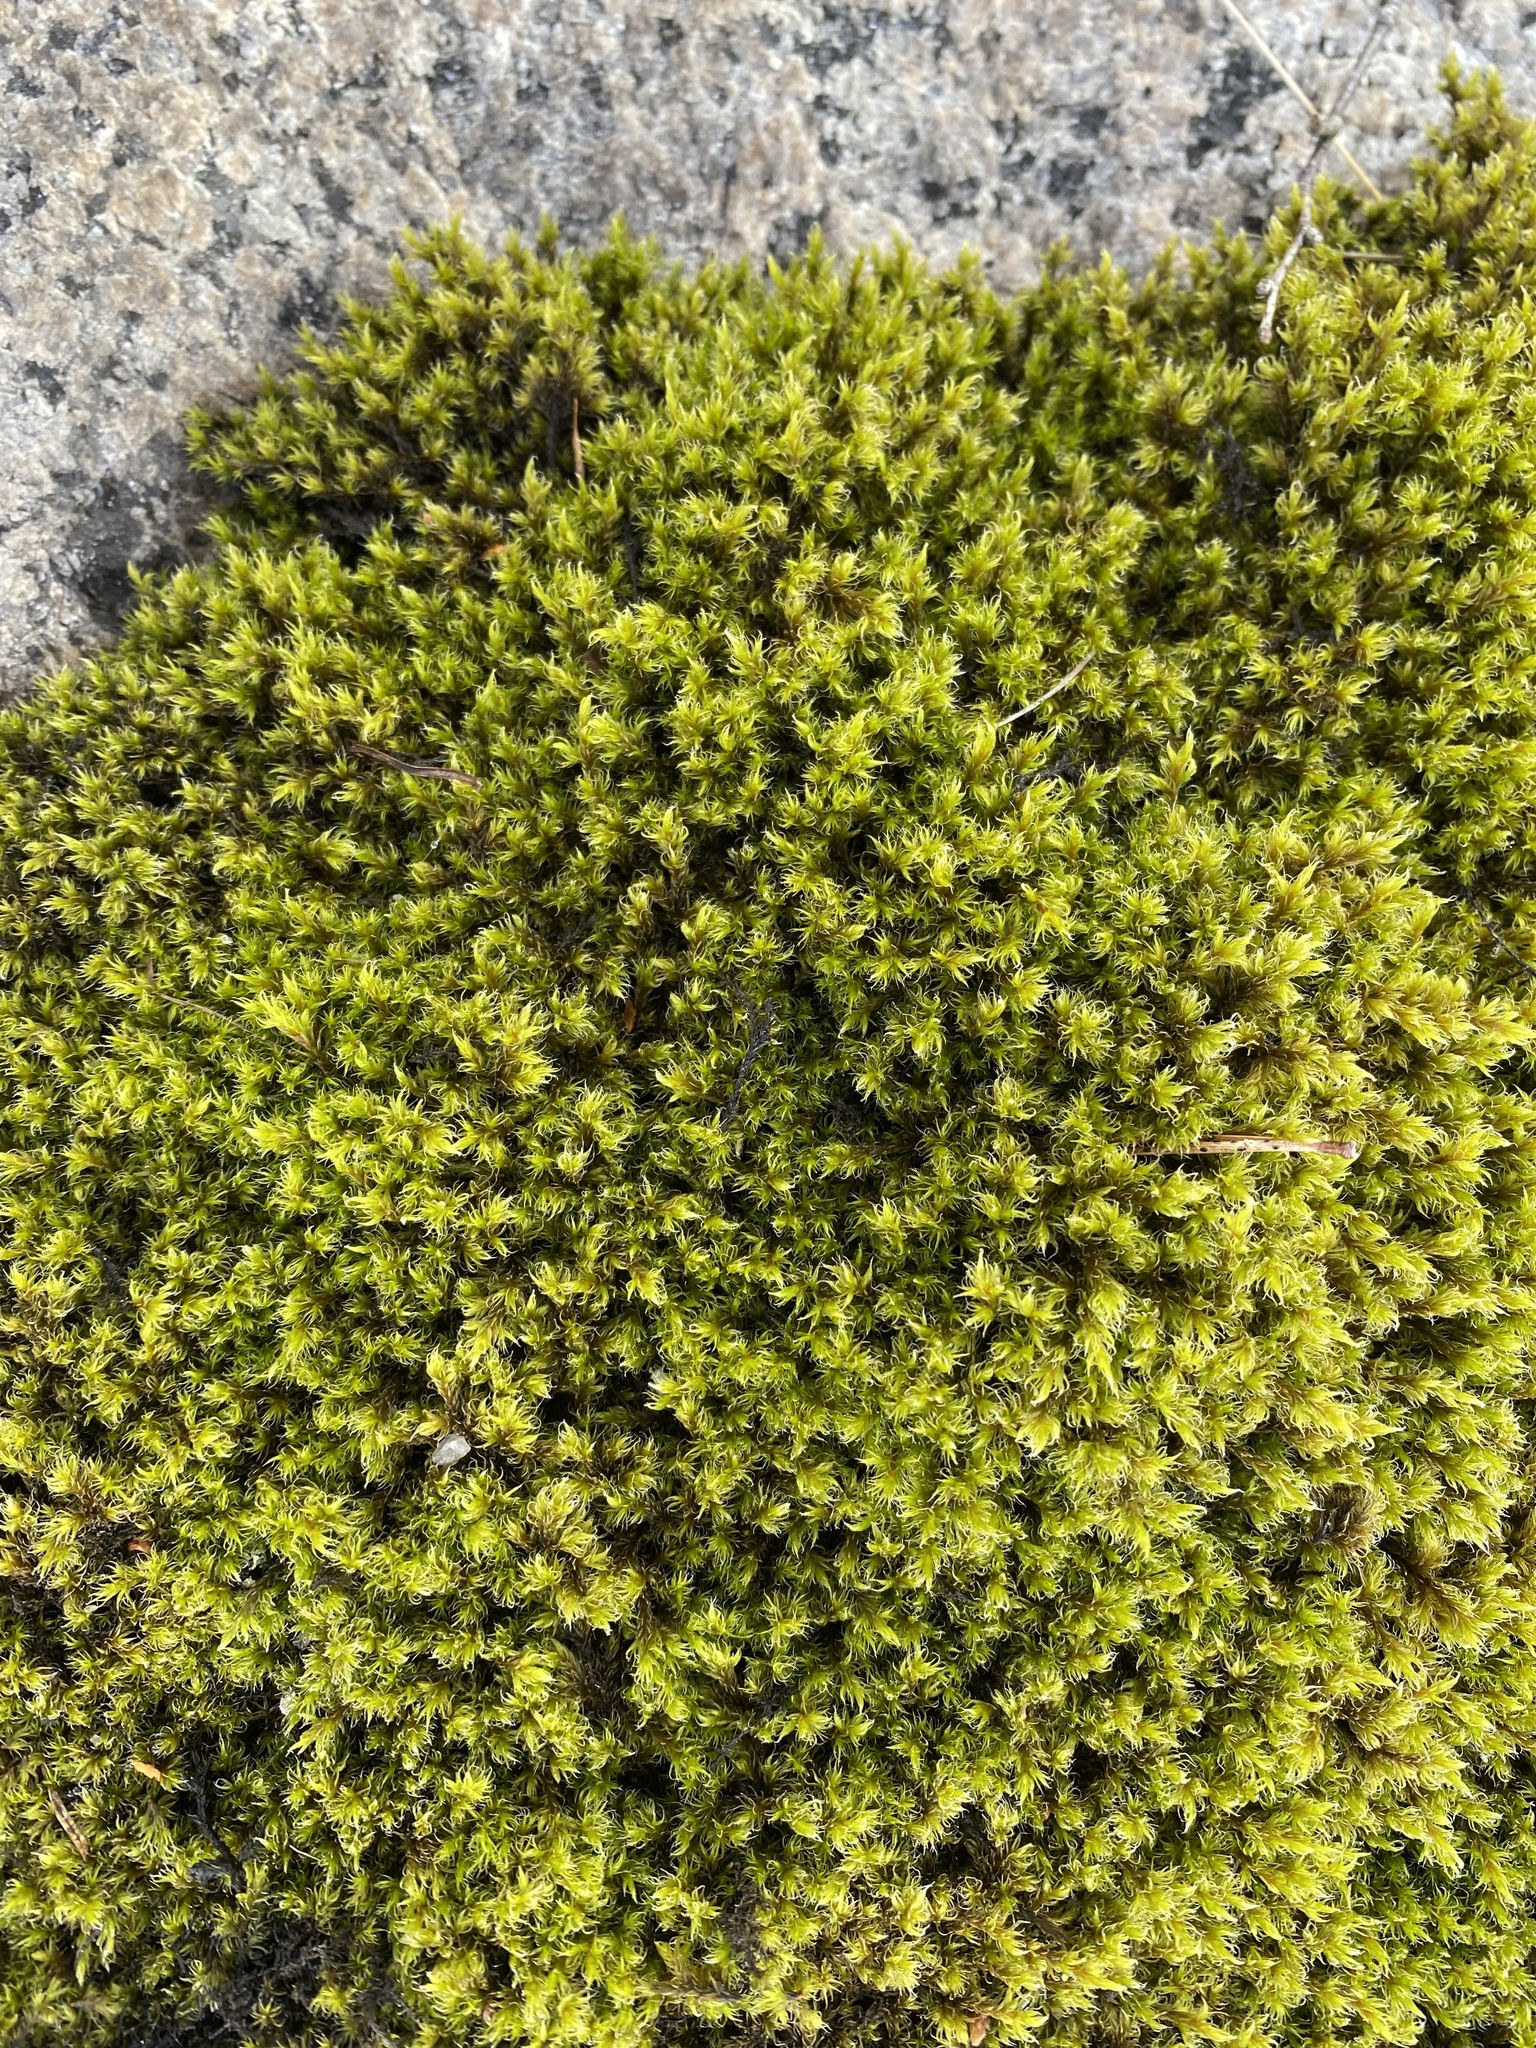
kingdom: Plantae
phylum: Bryophyta
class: Bryopsida
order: Grimmiales
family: Grimmiaceae
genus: Racomitrium
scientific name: Racomitrium lanuginosum
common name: Hoary rock moss
